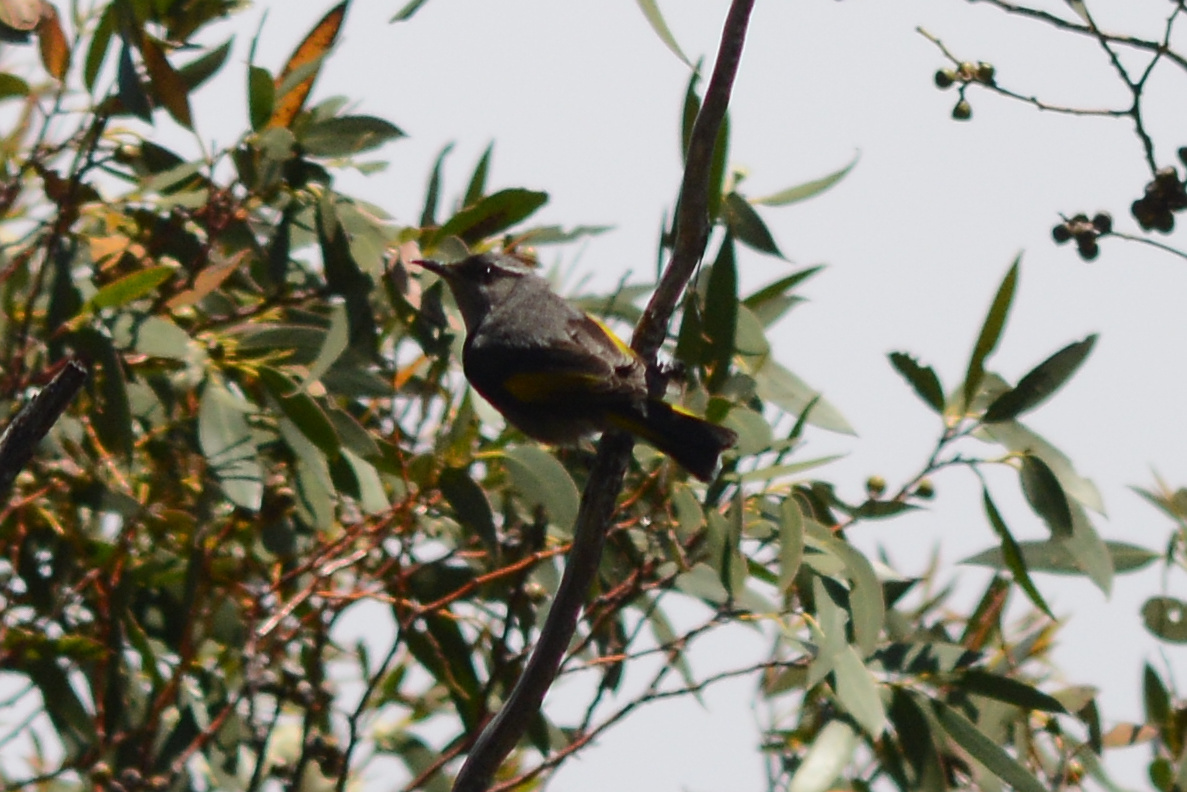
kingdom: Animalia
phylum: Chordata
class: Aves
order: Passeriformes
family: Meliphagidae
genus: Phylidonyris
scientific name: Phylidonyris pyrrhopterus
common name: Crescent honeyeater
